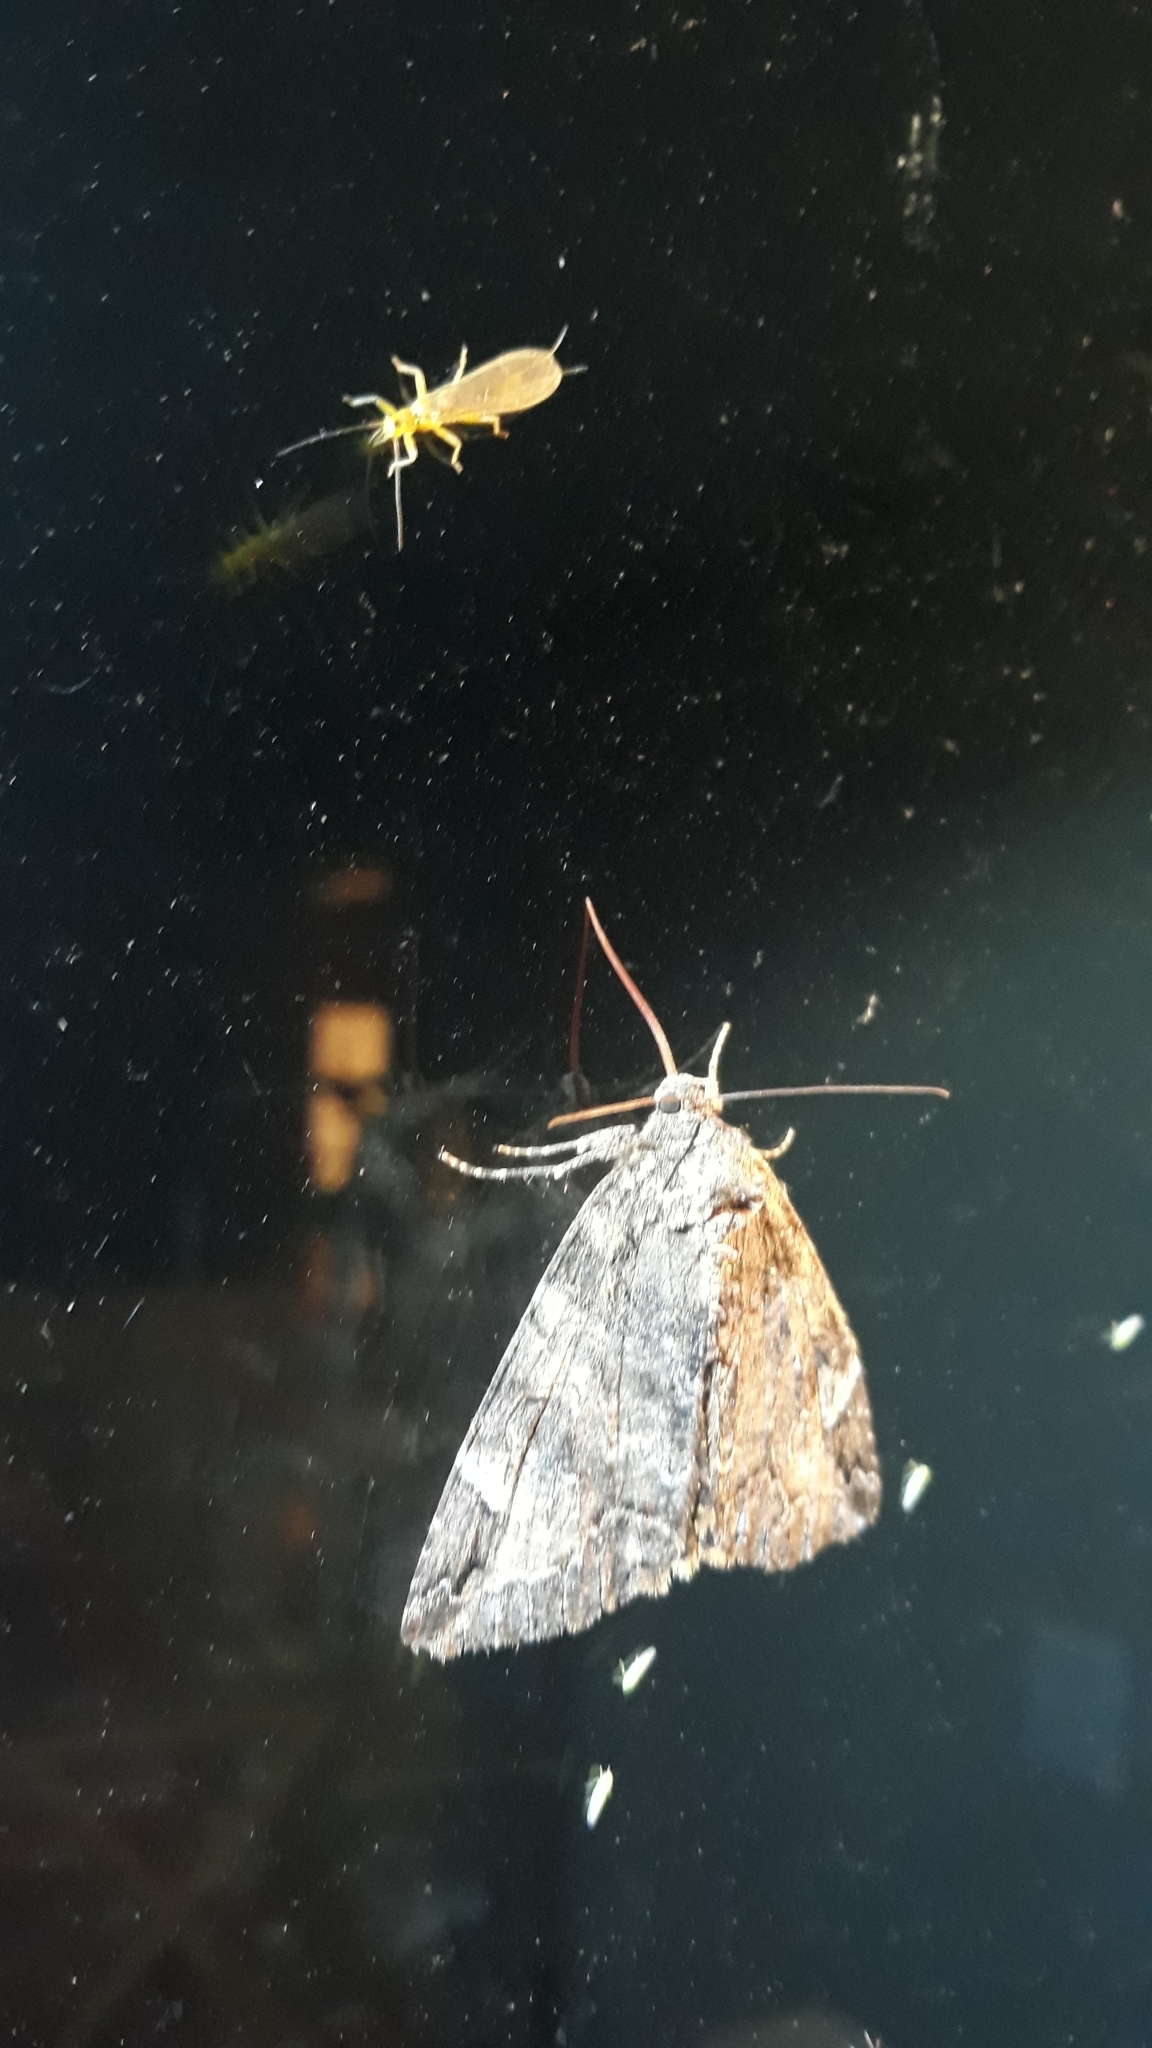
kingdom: Animalia
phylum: Arthropoda
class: Insecta
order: Lepidoptera
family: Erebidae
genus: Euparthenos
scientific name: Euparthenos nubilis
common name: Locust underwing
